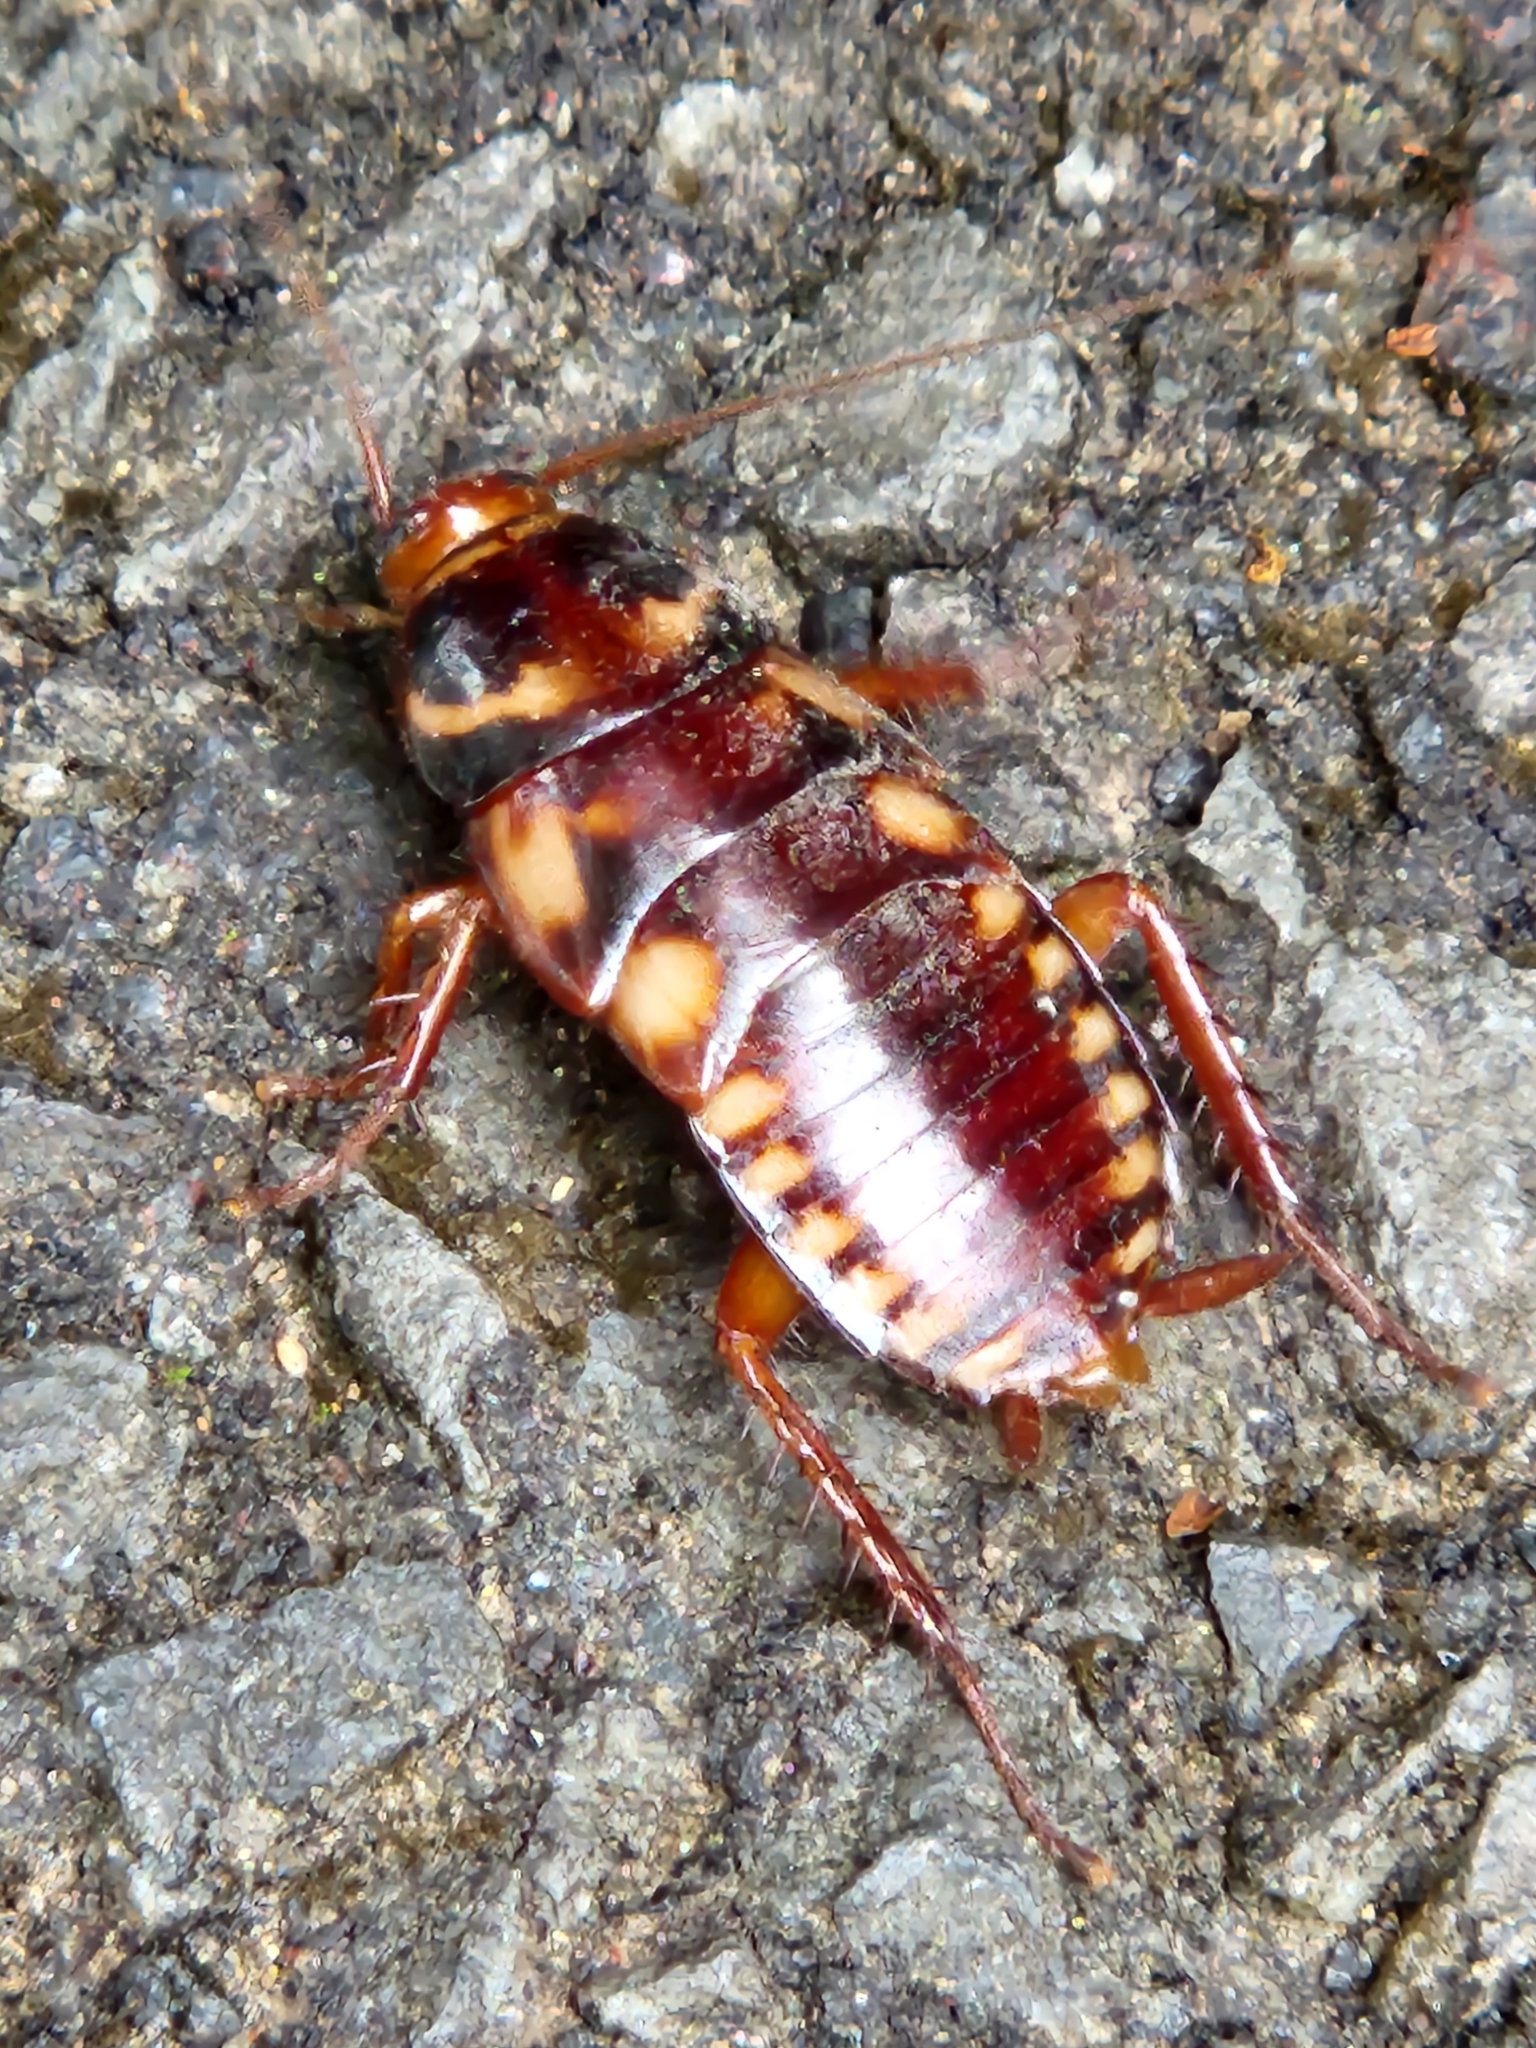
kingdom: Animalia
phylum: Arthropoda
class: Insecta
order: Blattodea
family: Blattidae
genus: Periplaneta
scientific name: Periplaneta australasiae
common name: Australian cockroach
